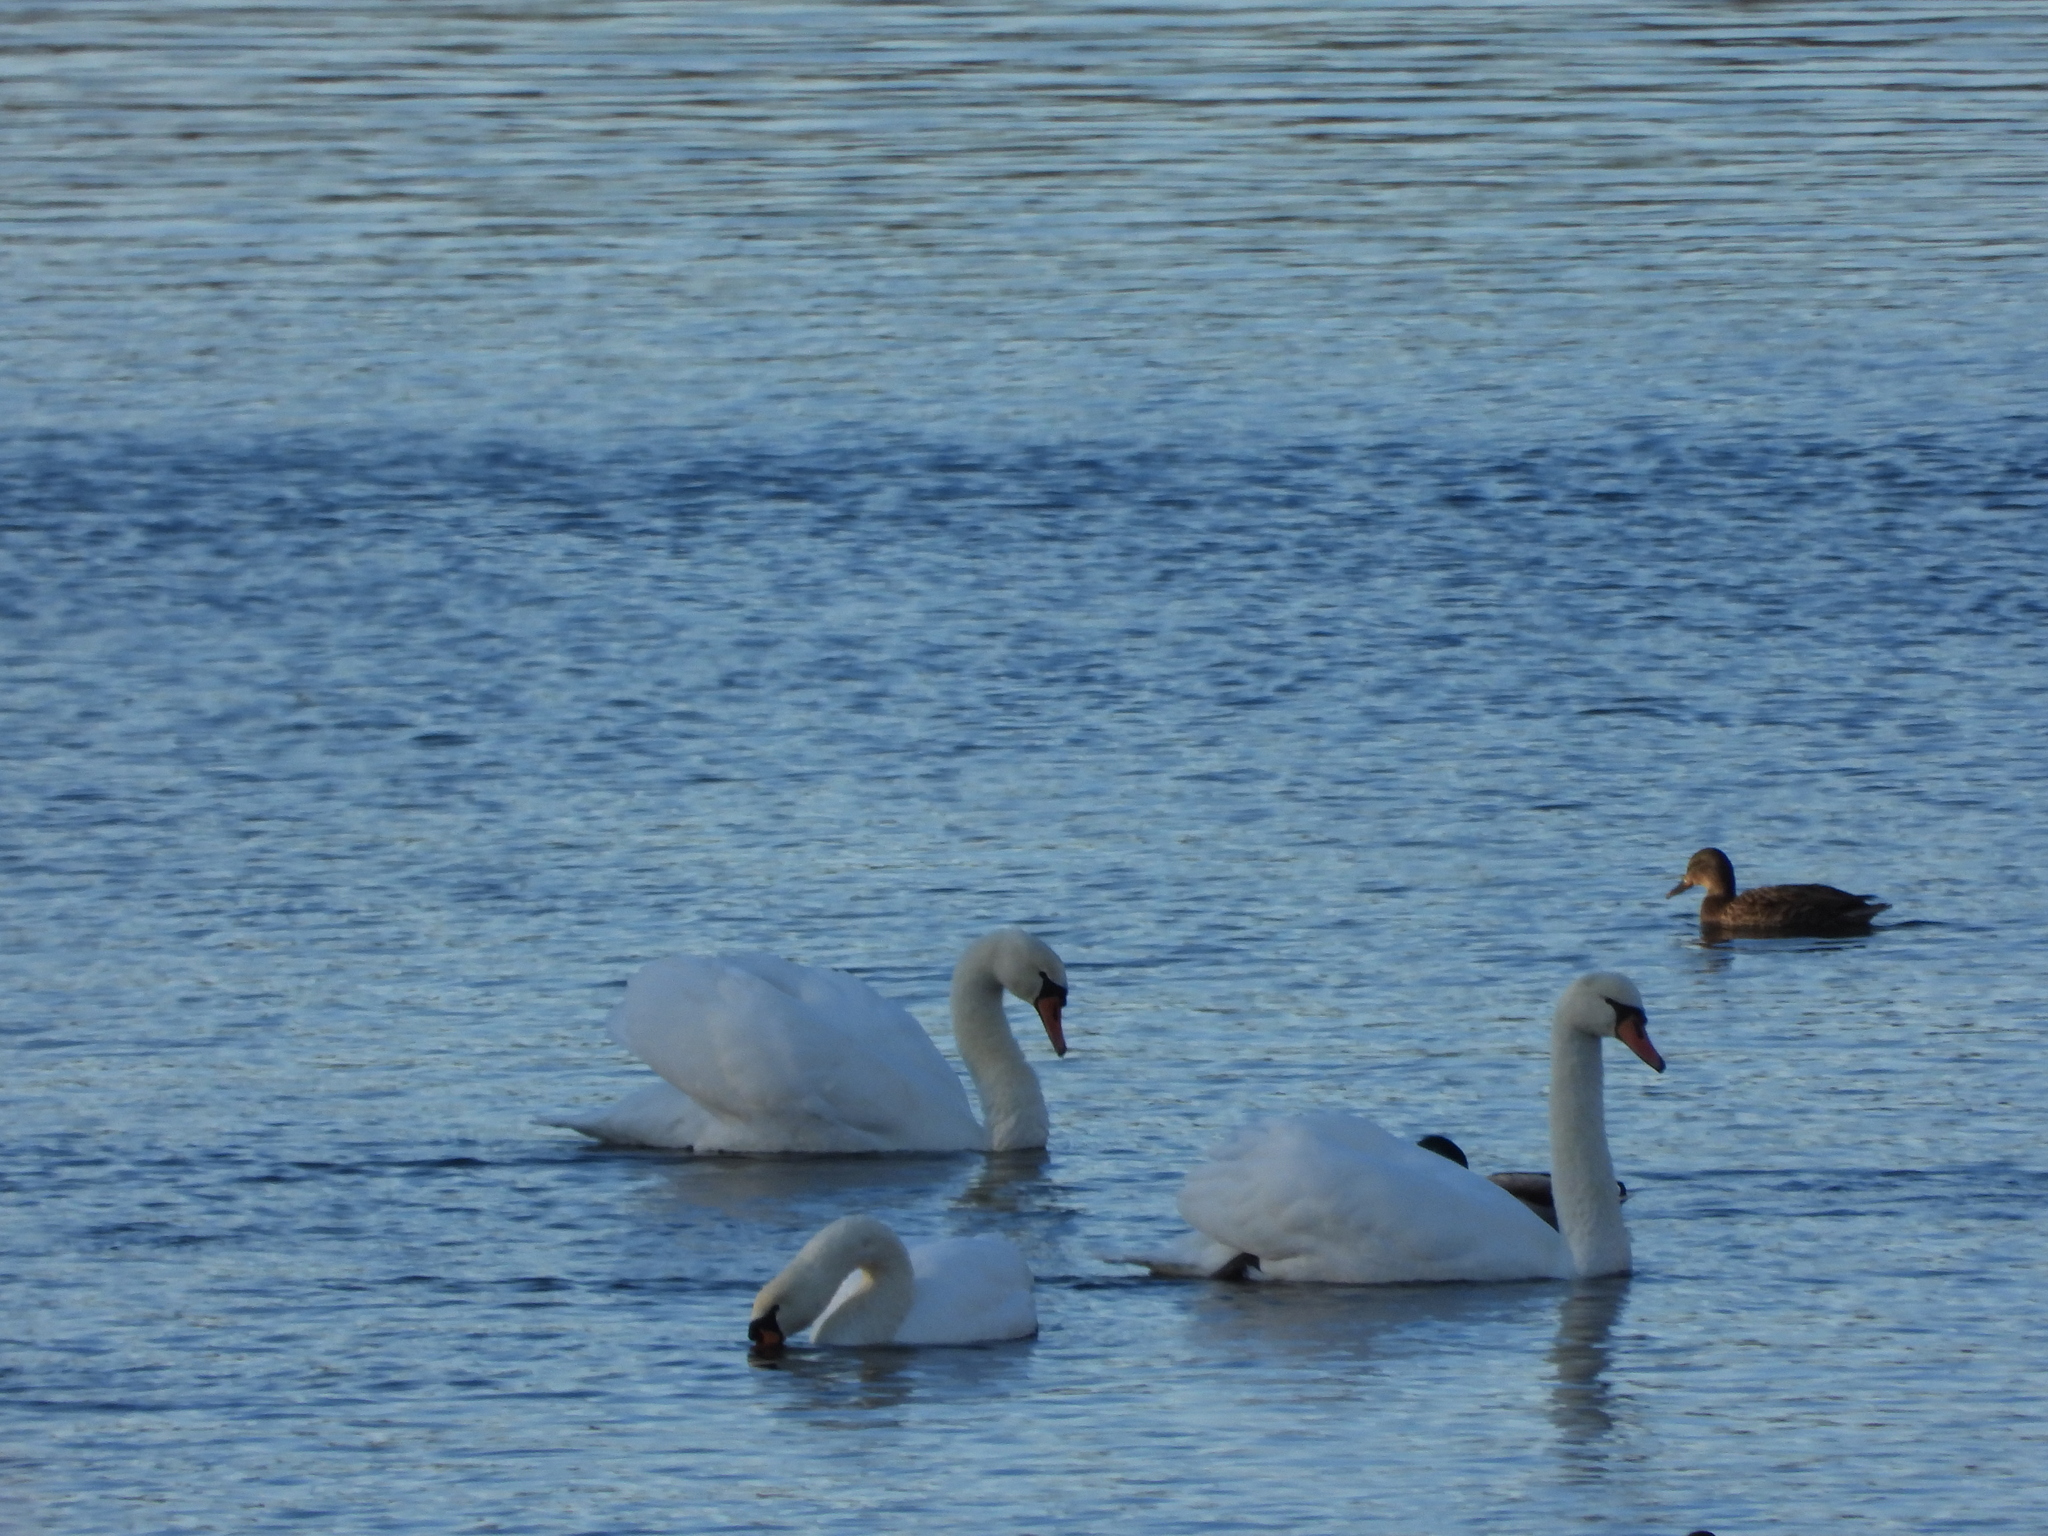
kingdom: Animalia
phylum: Chordata
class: Aves
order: Anseriformes
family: Anatidae
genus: Cygnus
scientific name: Cygnus olor
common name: Mute swan
